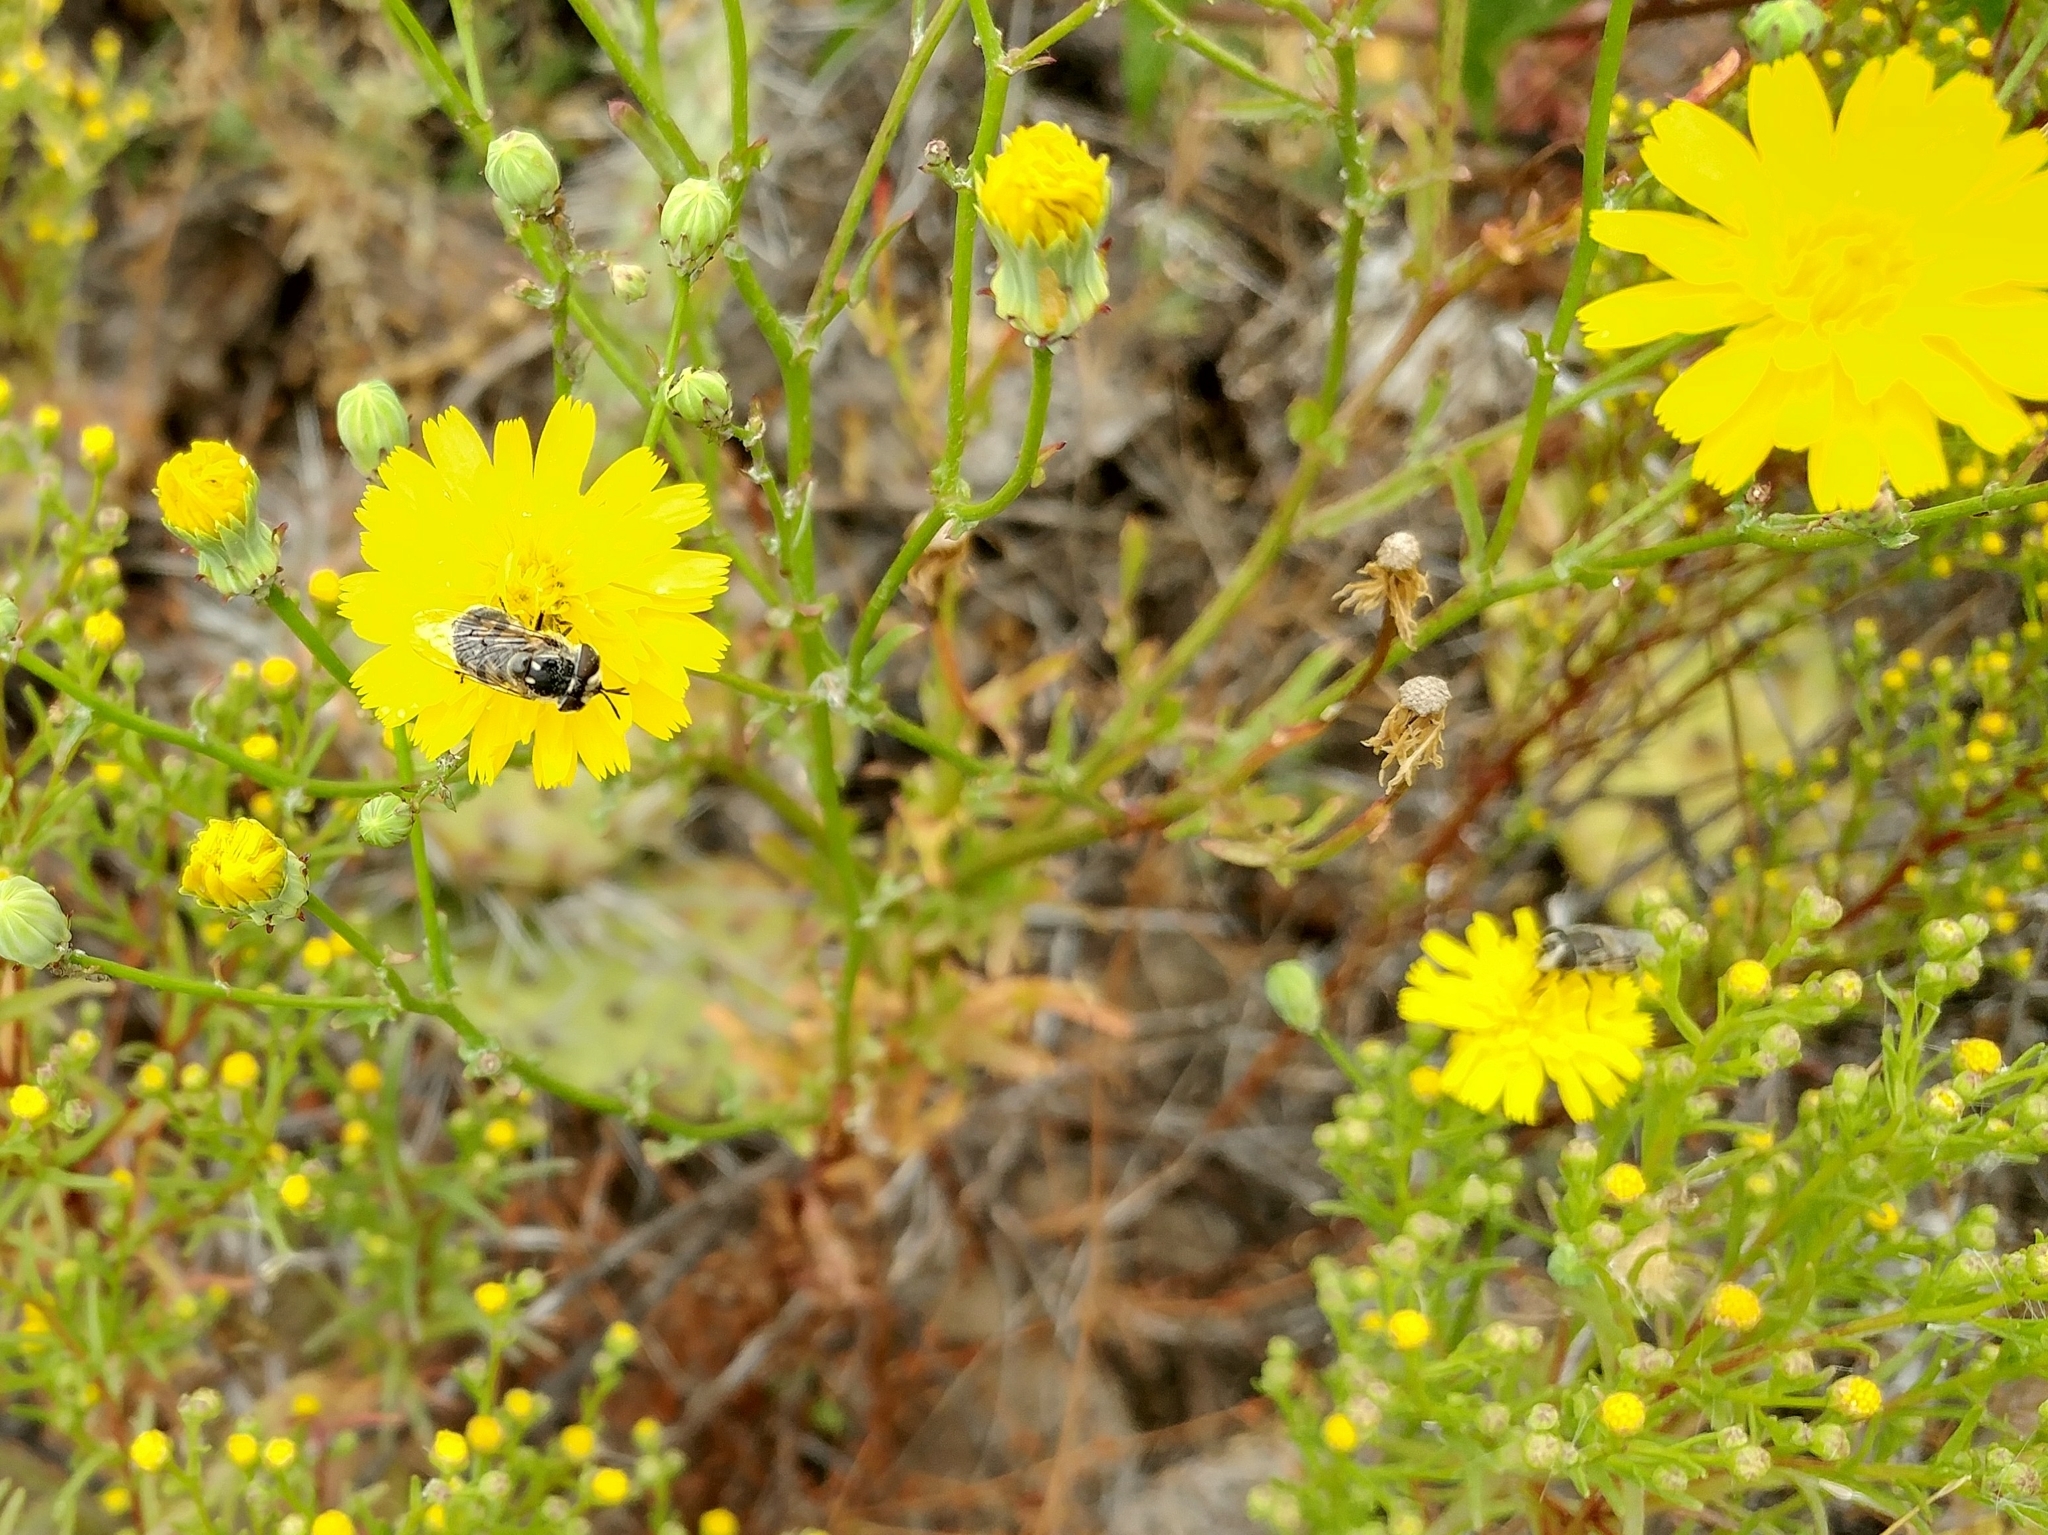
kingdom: Plantae
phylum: Tracheophyta
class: Magnoliopsida
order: Asterales
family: Asteraceae
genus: Malacothrix
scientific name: Malacothrix foliosa
